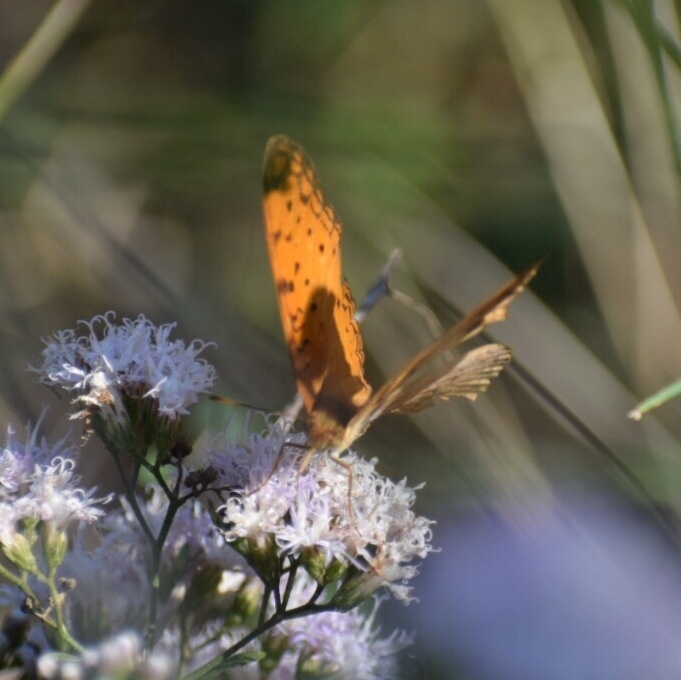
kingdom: Animalia
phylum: Arthropoda
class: Insecta
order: Lepidoptera
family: Nymphalidae
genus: Phalanta
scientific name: Phalanta phalantha
